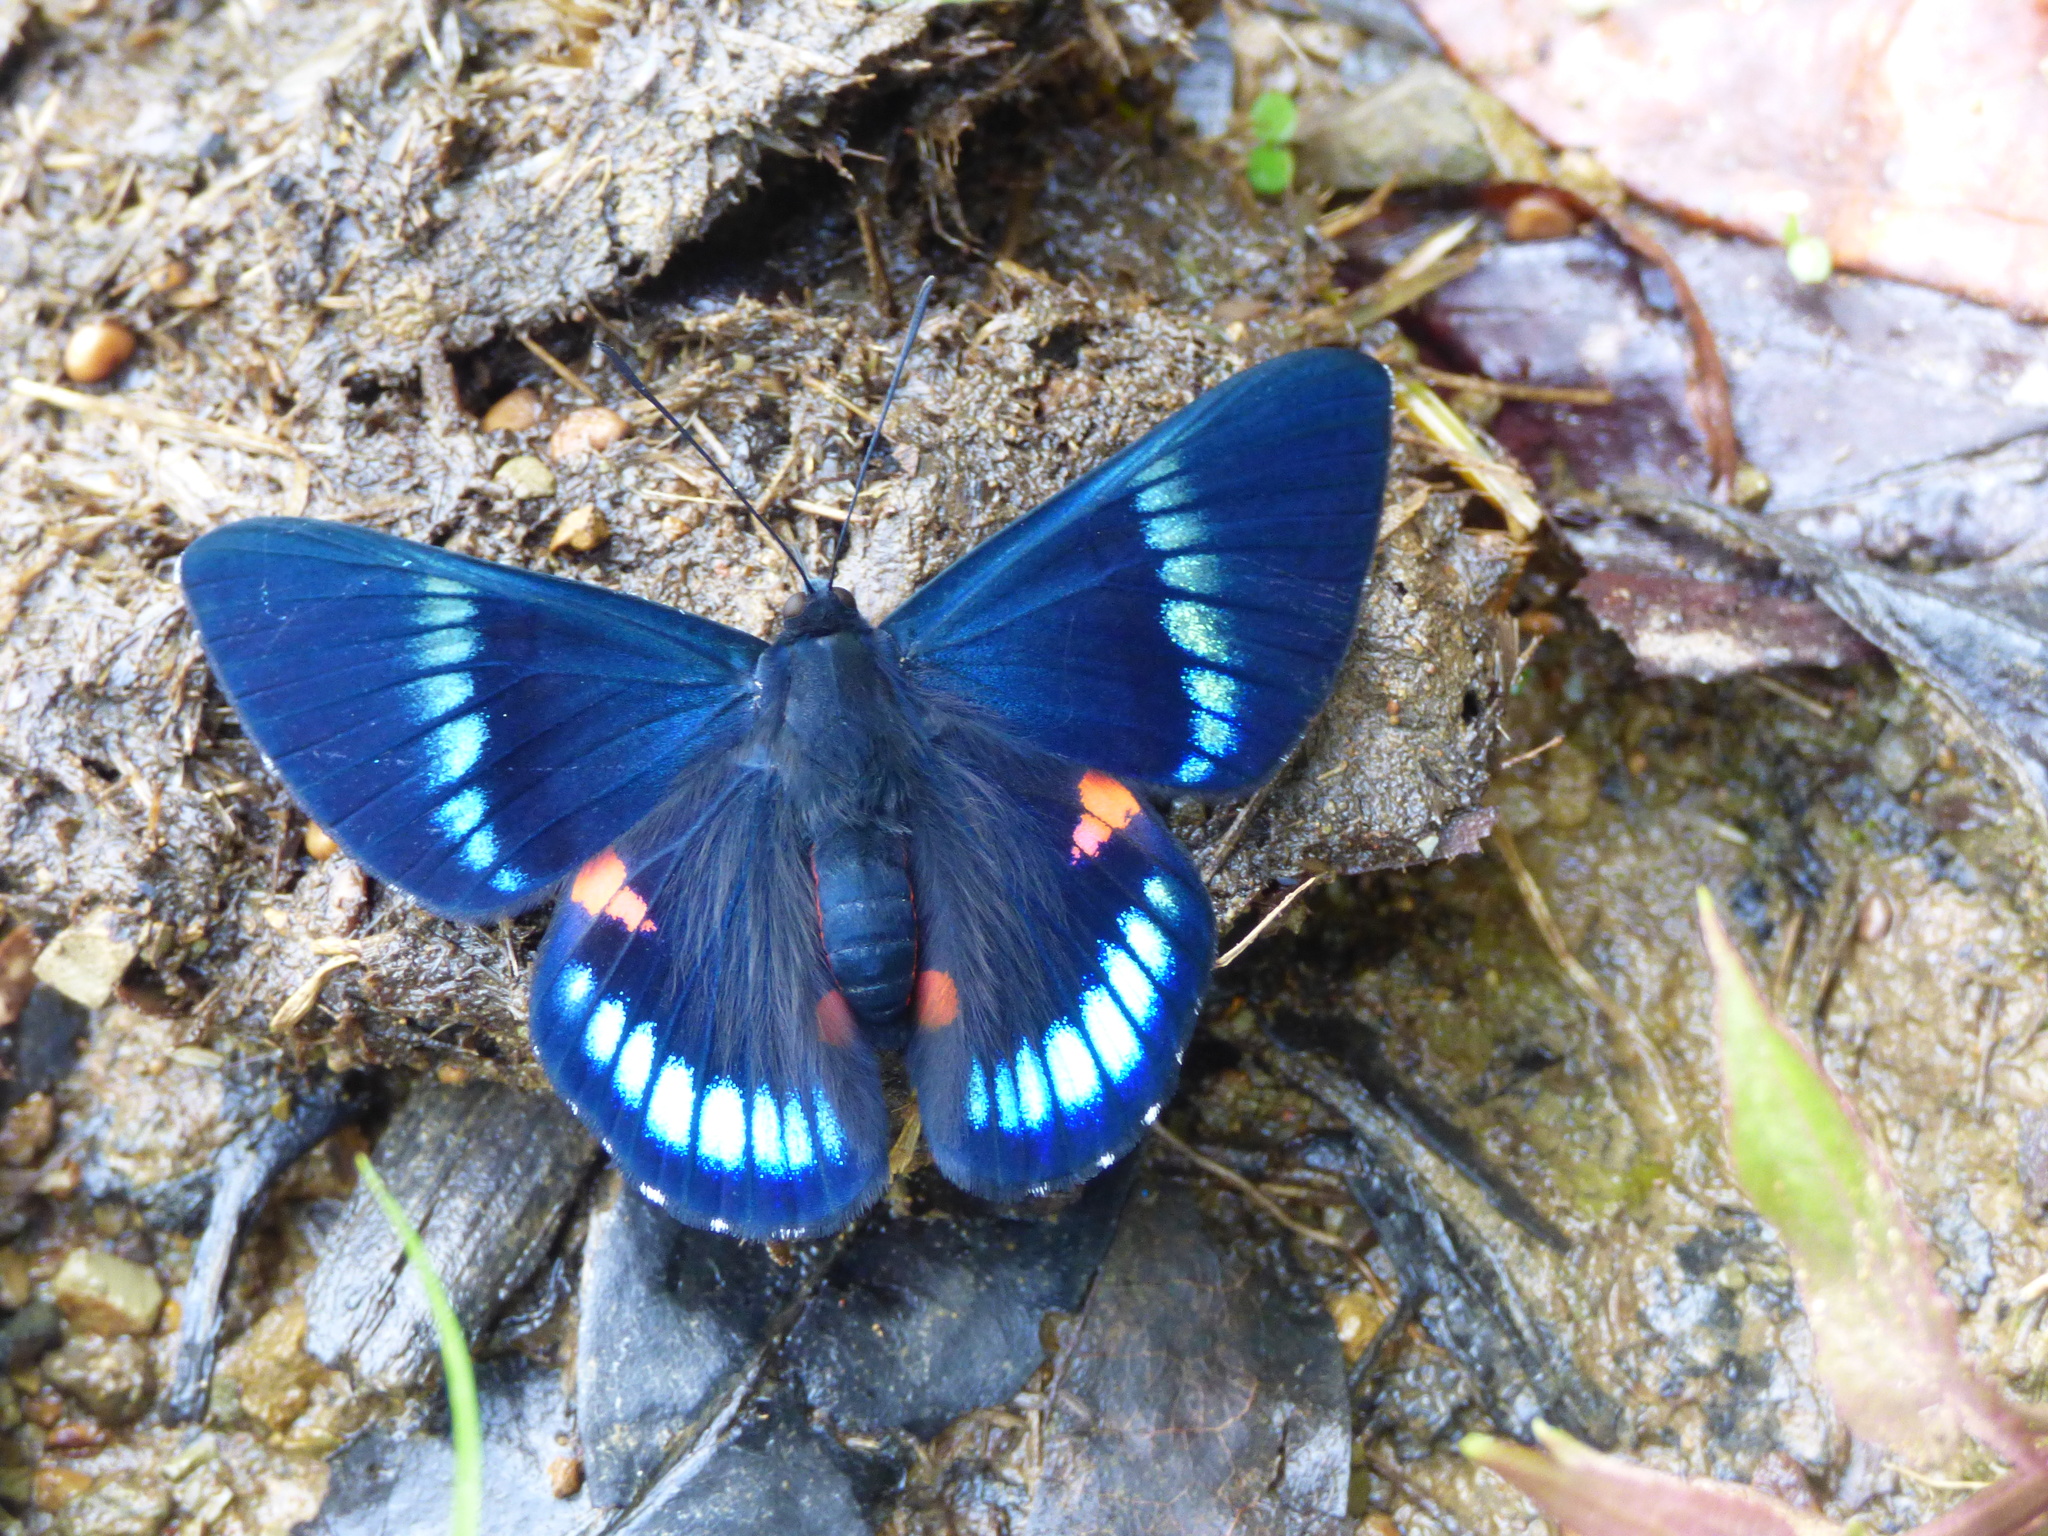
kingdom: Animalia
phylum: Arthropoda
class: Insecta
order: Lepidoptera
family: Lycaenidae
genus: Necyria
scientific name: Necyria bellona
